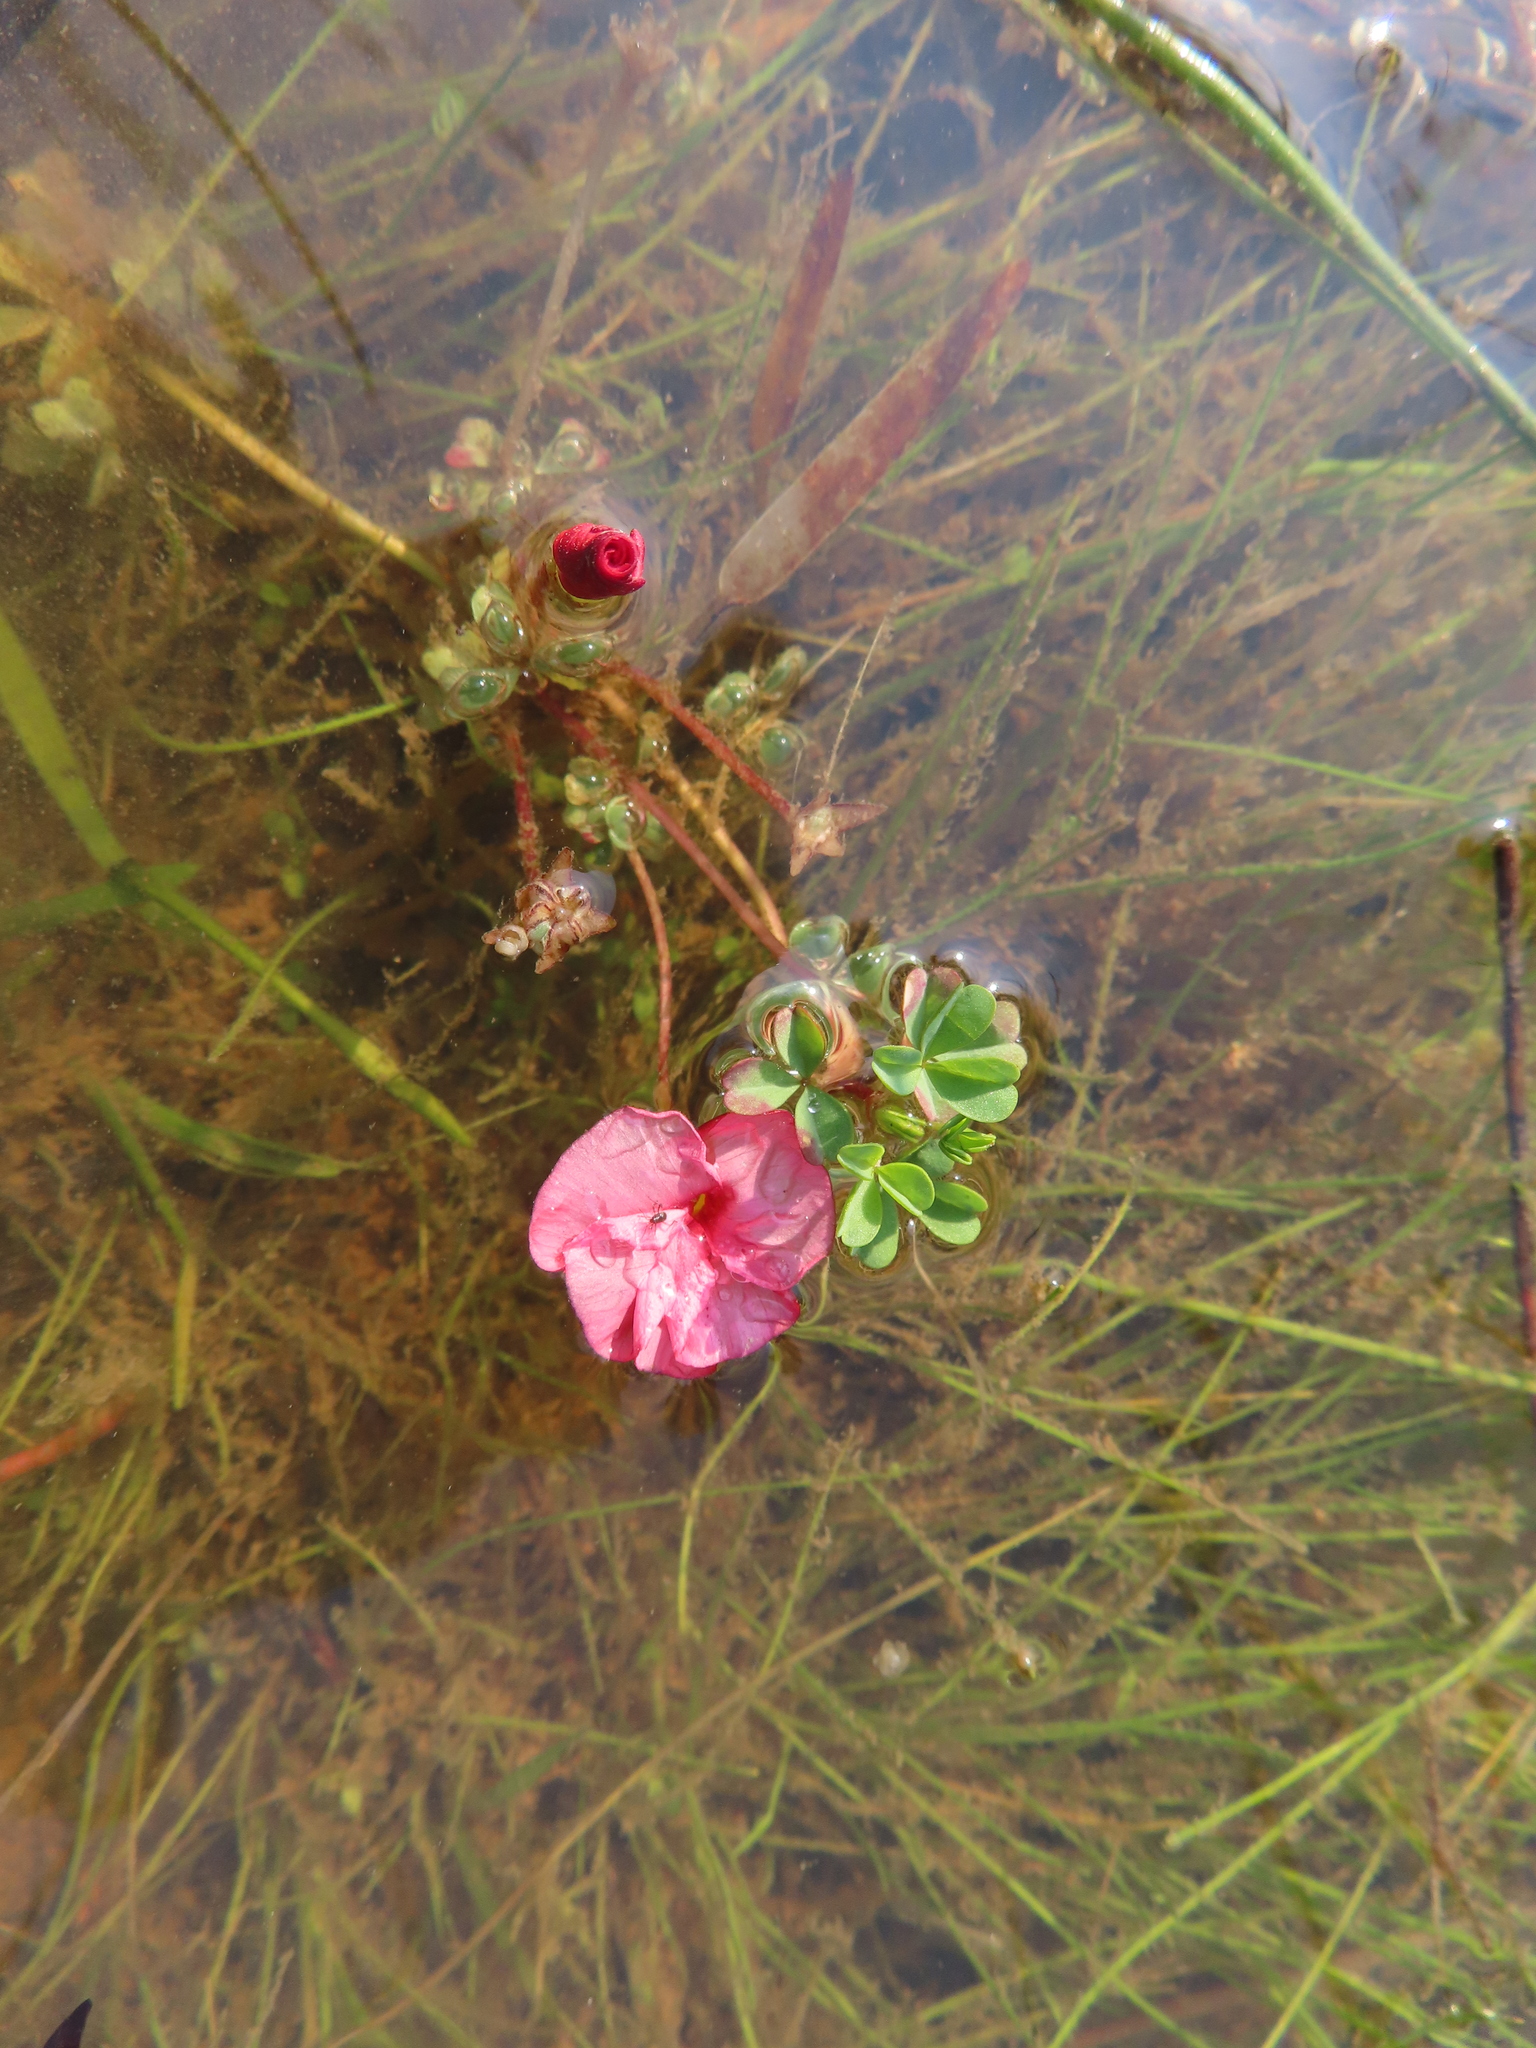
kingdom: Plantae
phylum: Tracheophyta
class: Magnoliopsida
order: Oxalidales
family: Oxalidaceae
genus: Oxalis
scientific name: Oxalis goniorhiza
